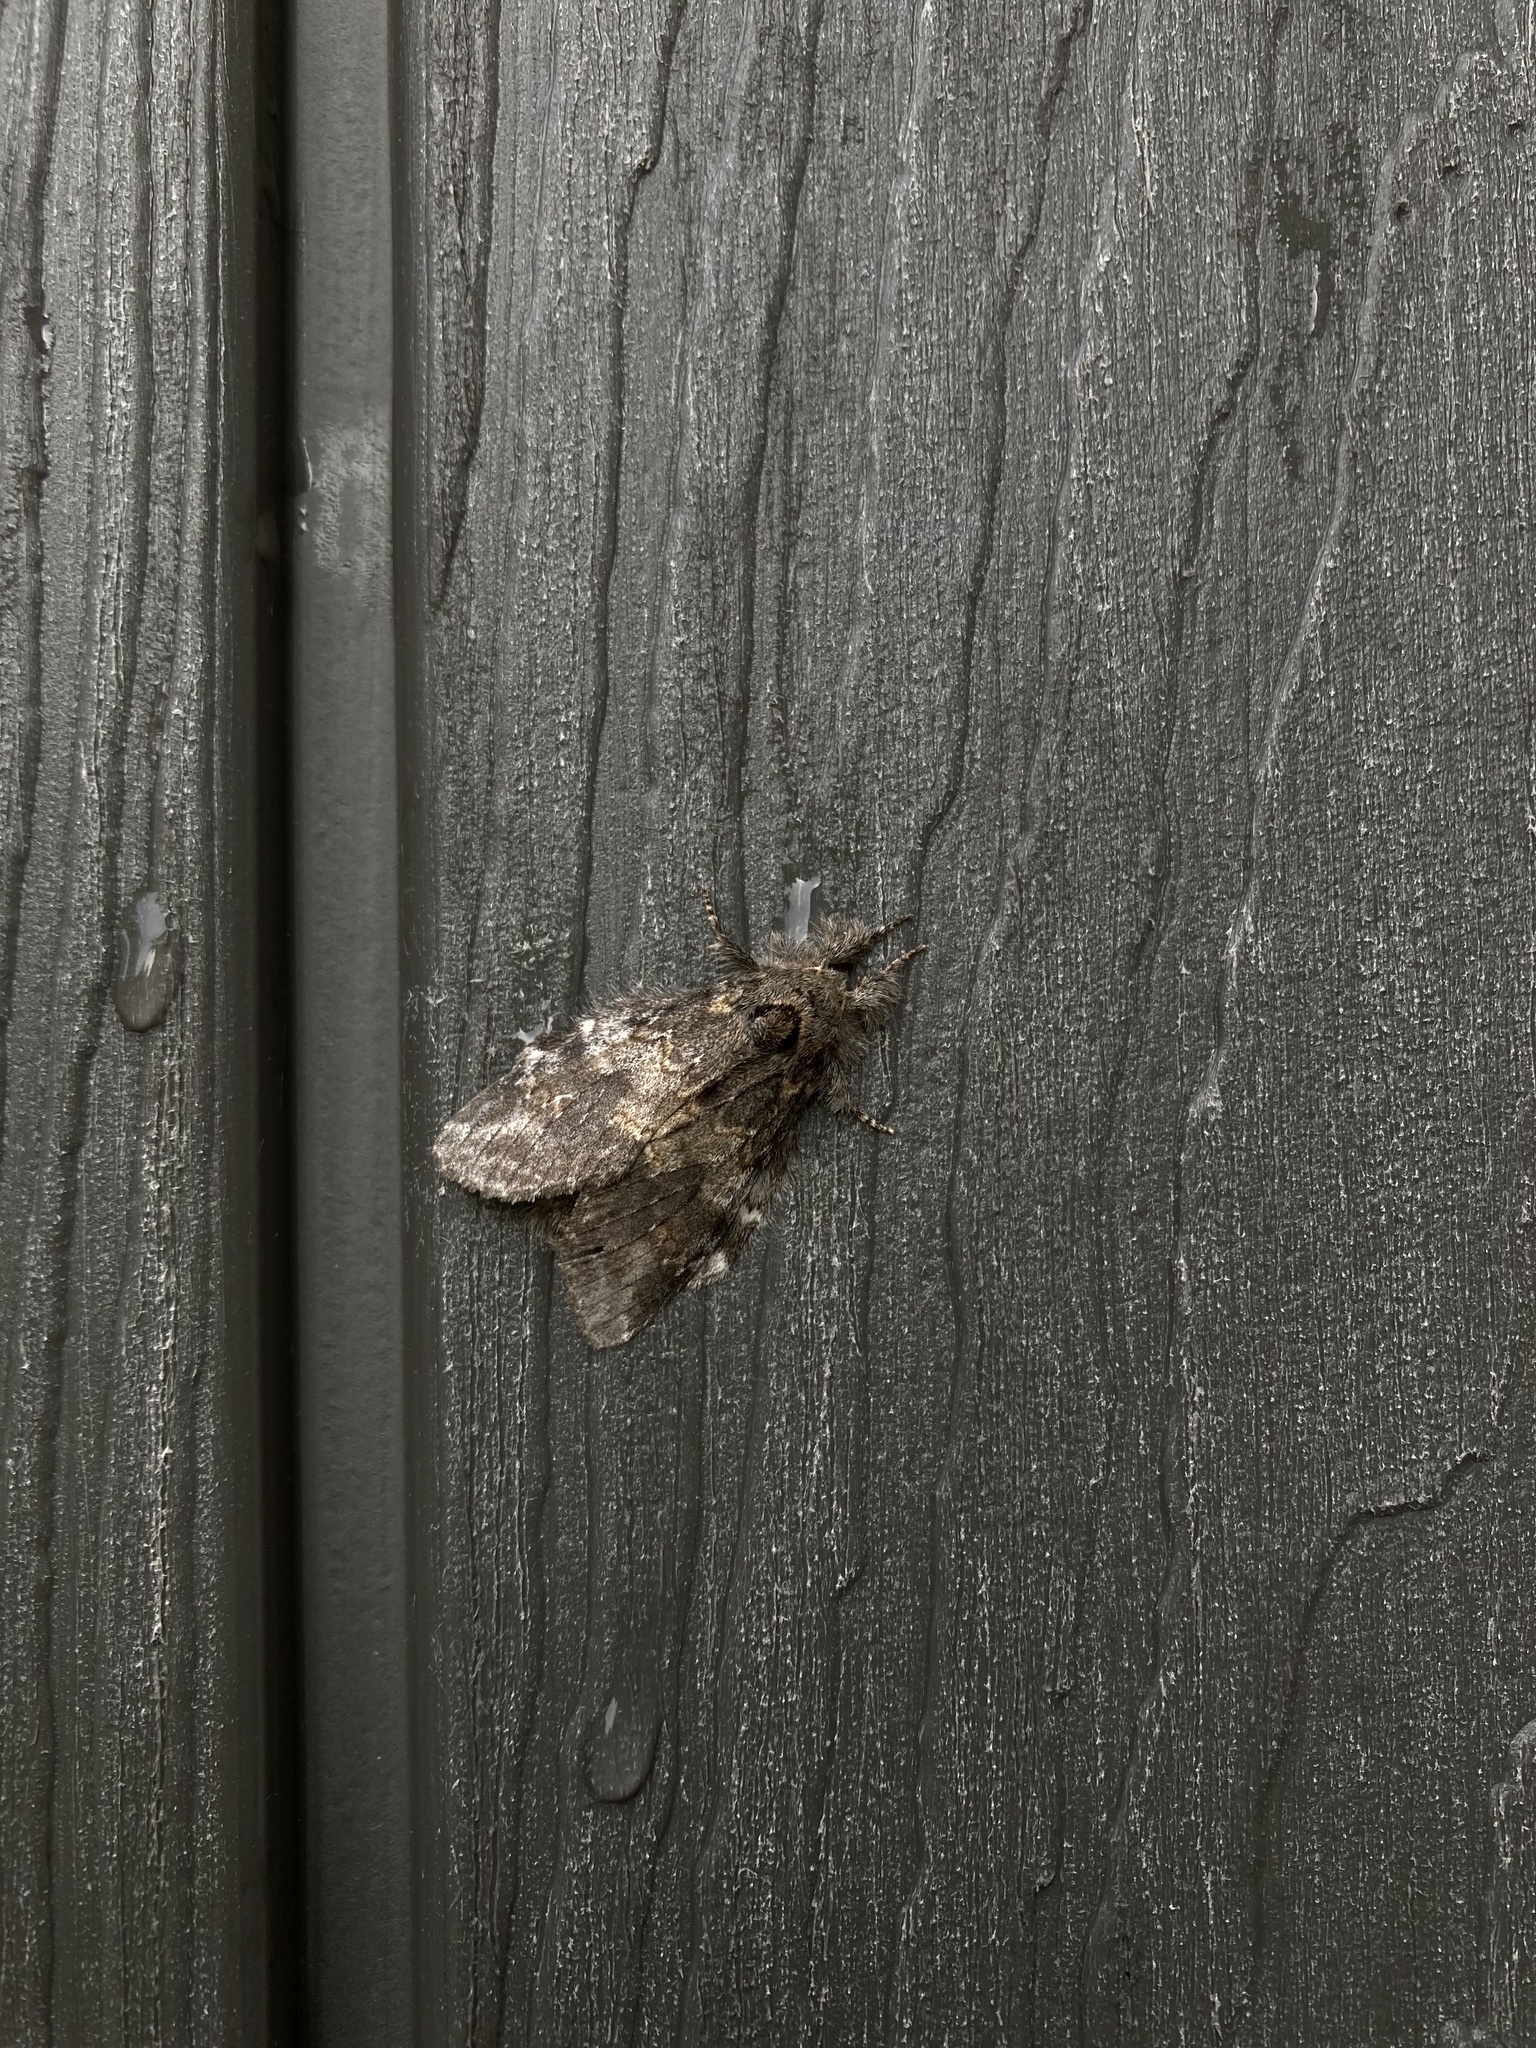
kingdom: Animalia
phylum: Arthropoda
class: Insecta
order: Lepidoptera
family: Notodontidae
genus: Peridea
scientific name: Peridea angulosa
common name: Angulose prominent
